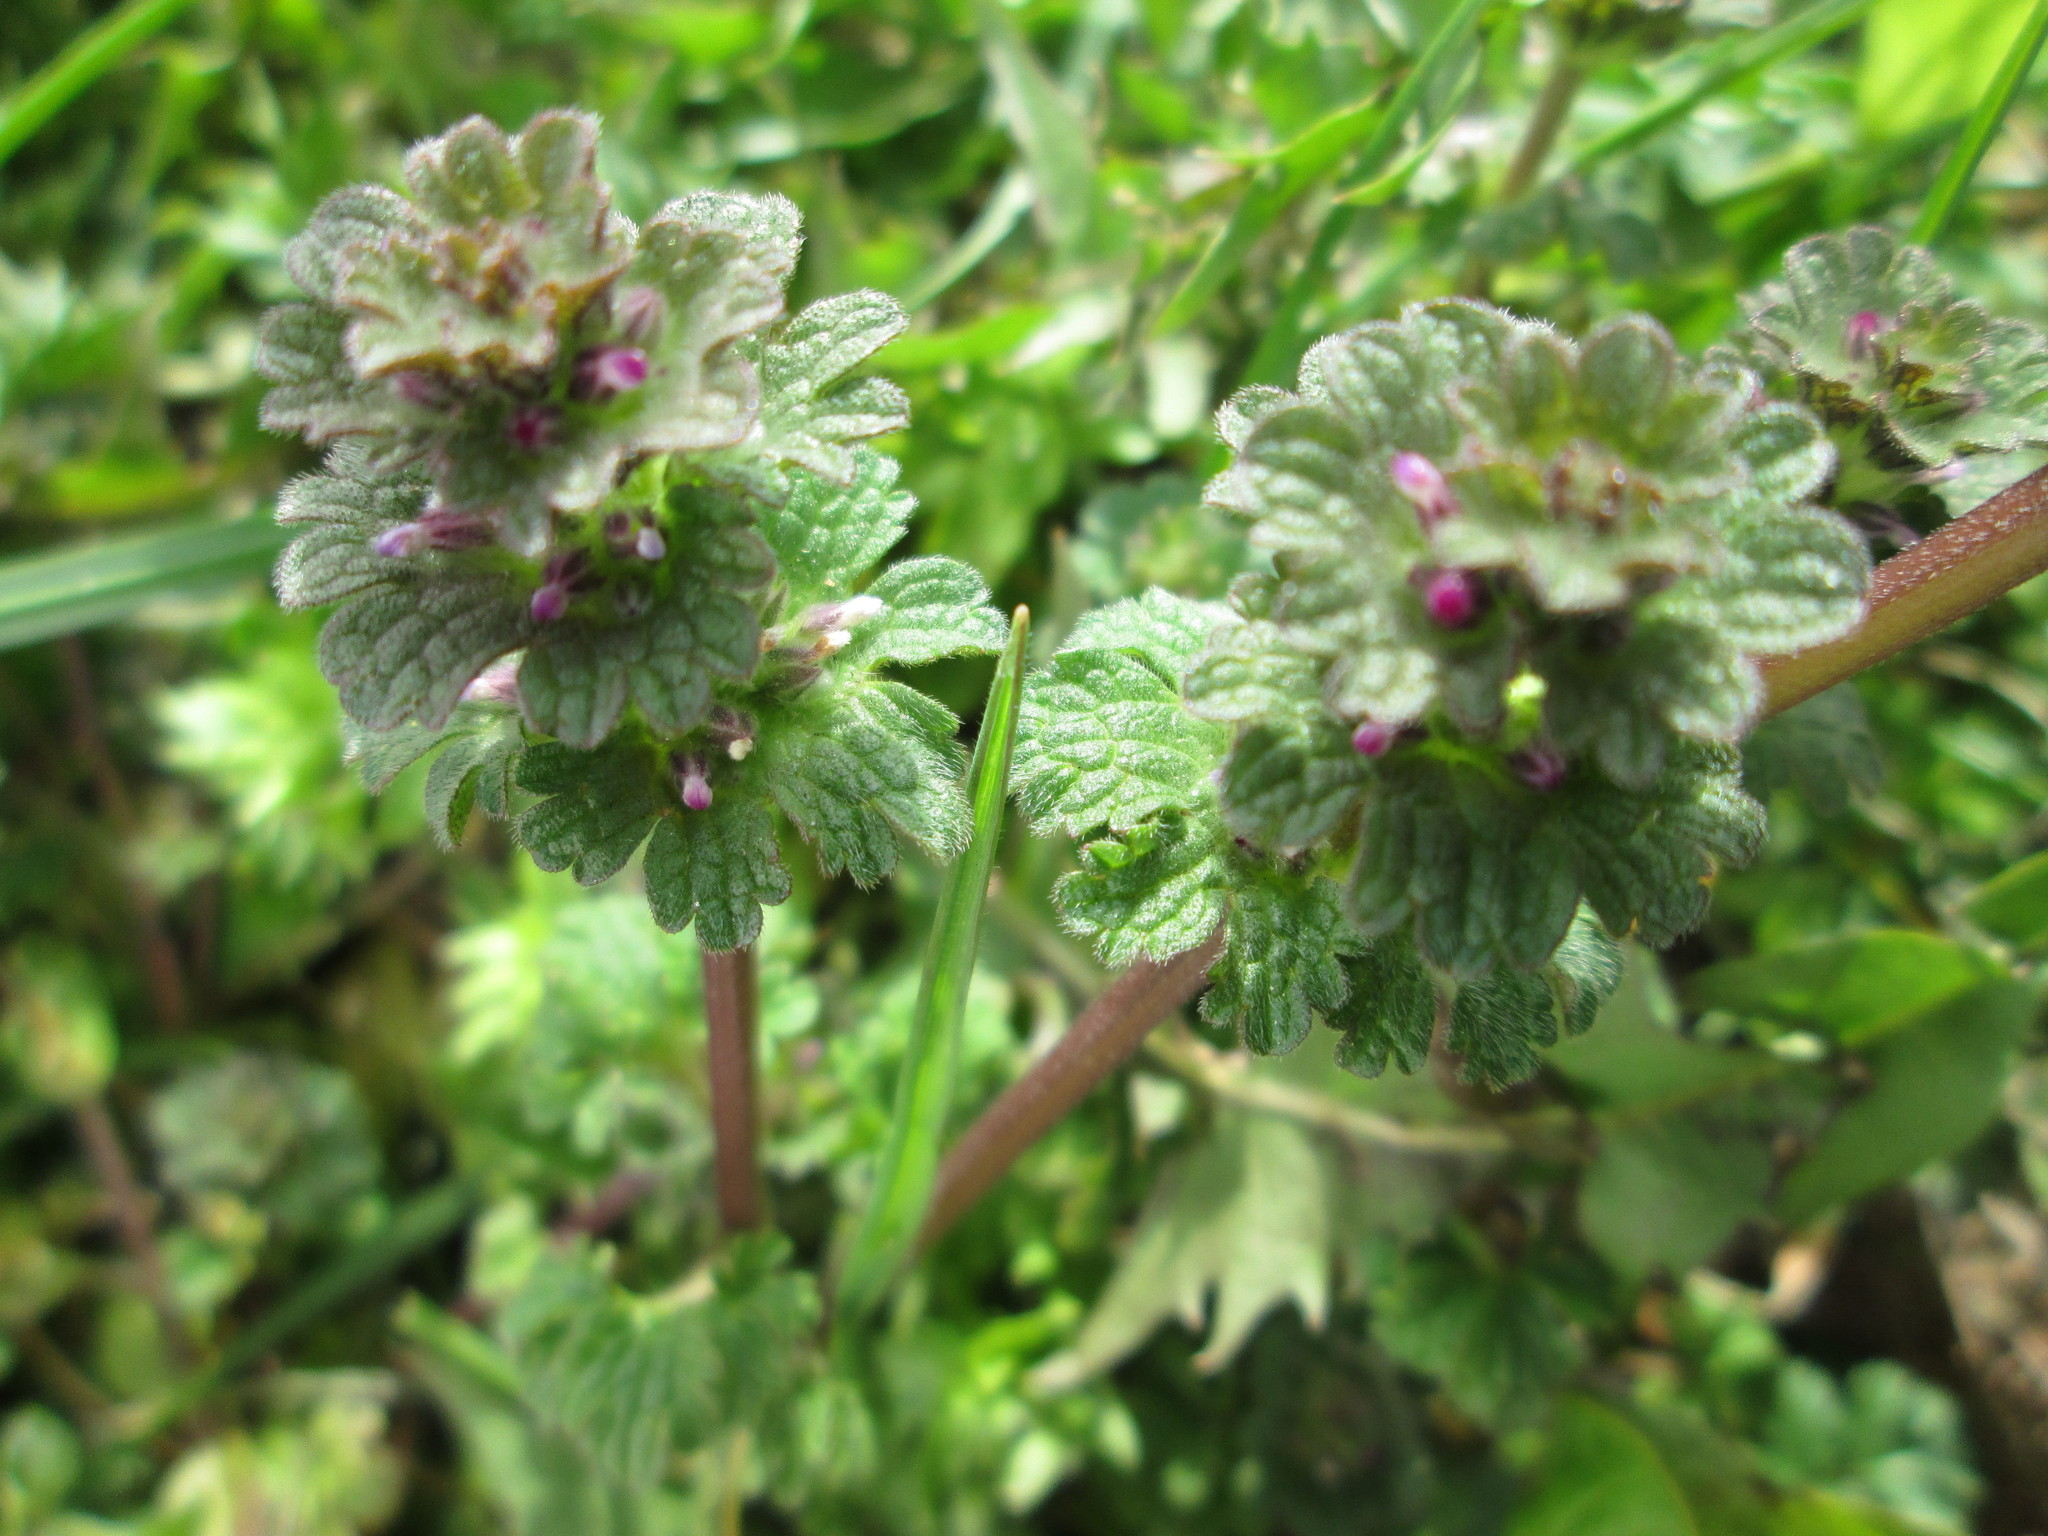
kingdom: Plantae
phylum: Tracheophyta
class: Magnoliopsida
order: Lamiales
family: Lamiaceae
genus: Lamium
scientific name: Lamium amplexicaule
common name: Henbit dead-nettle
